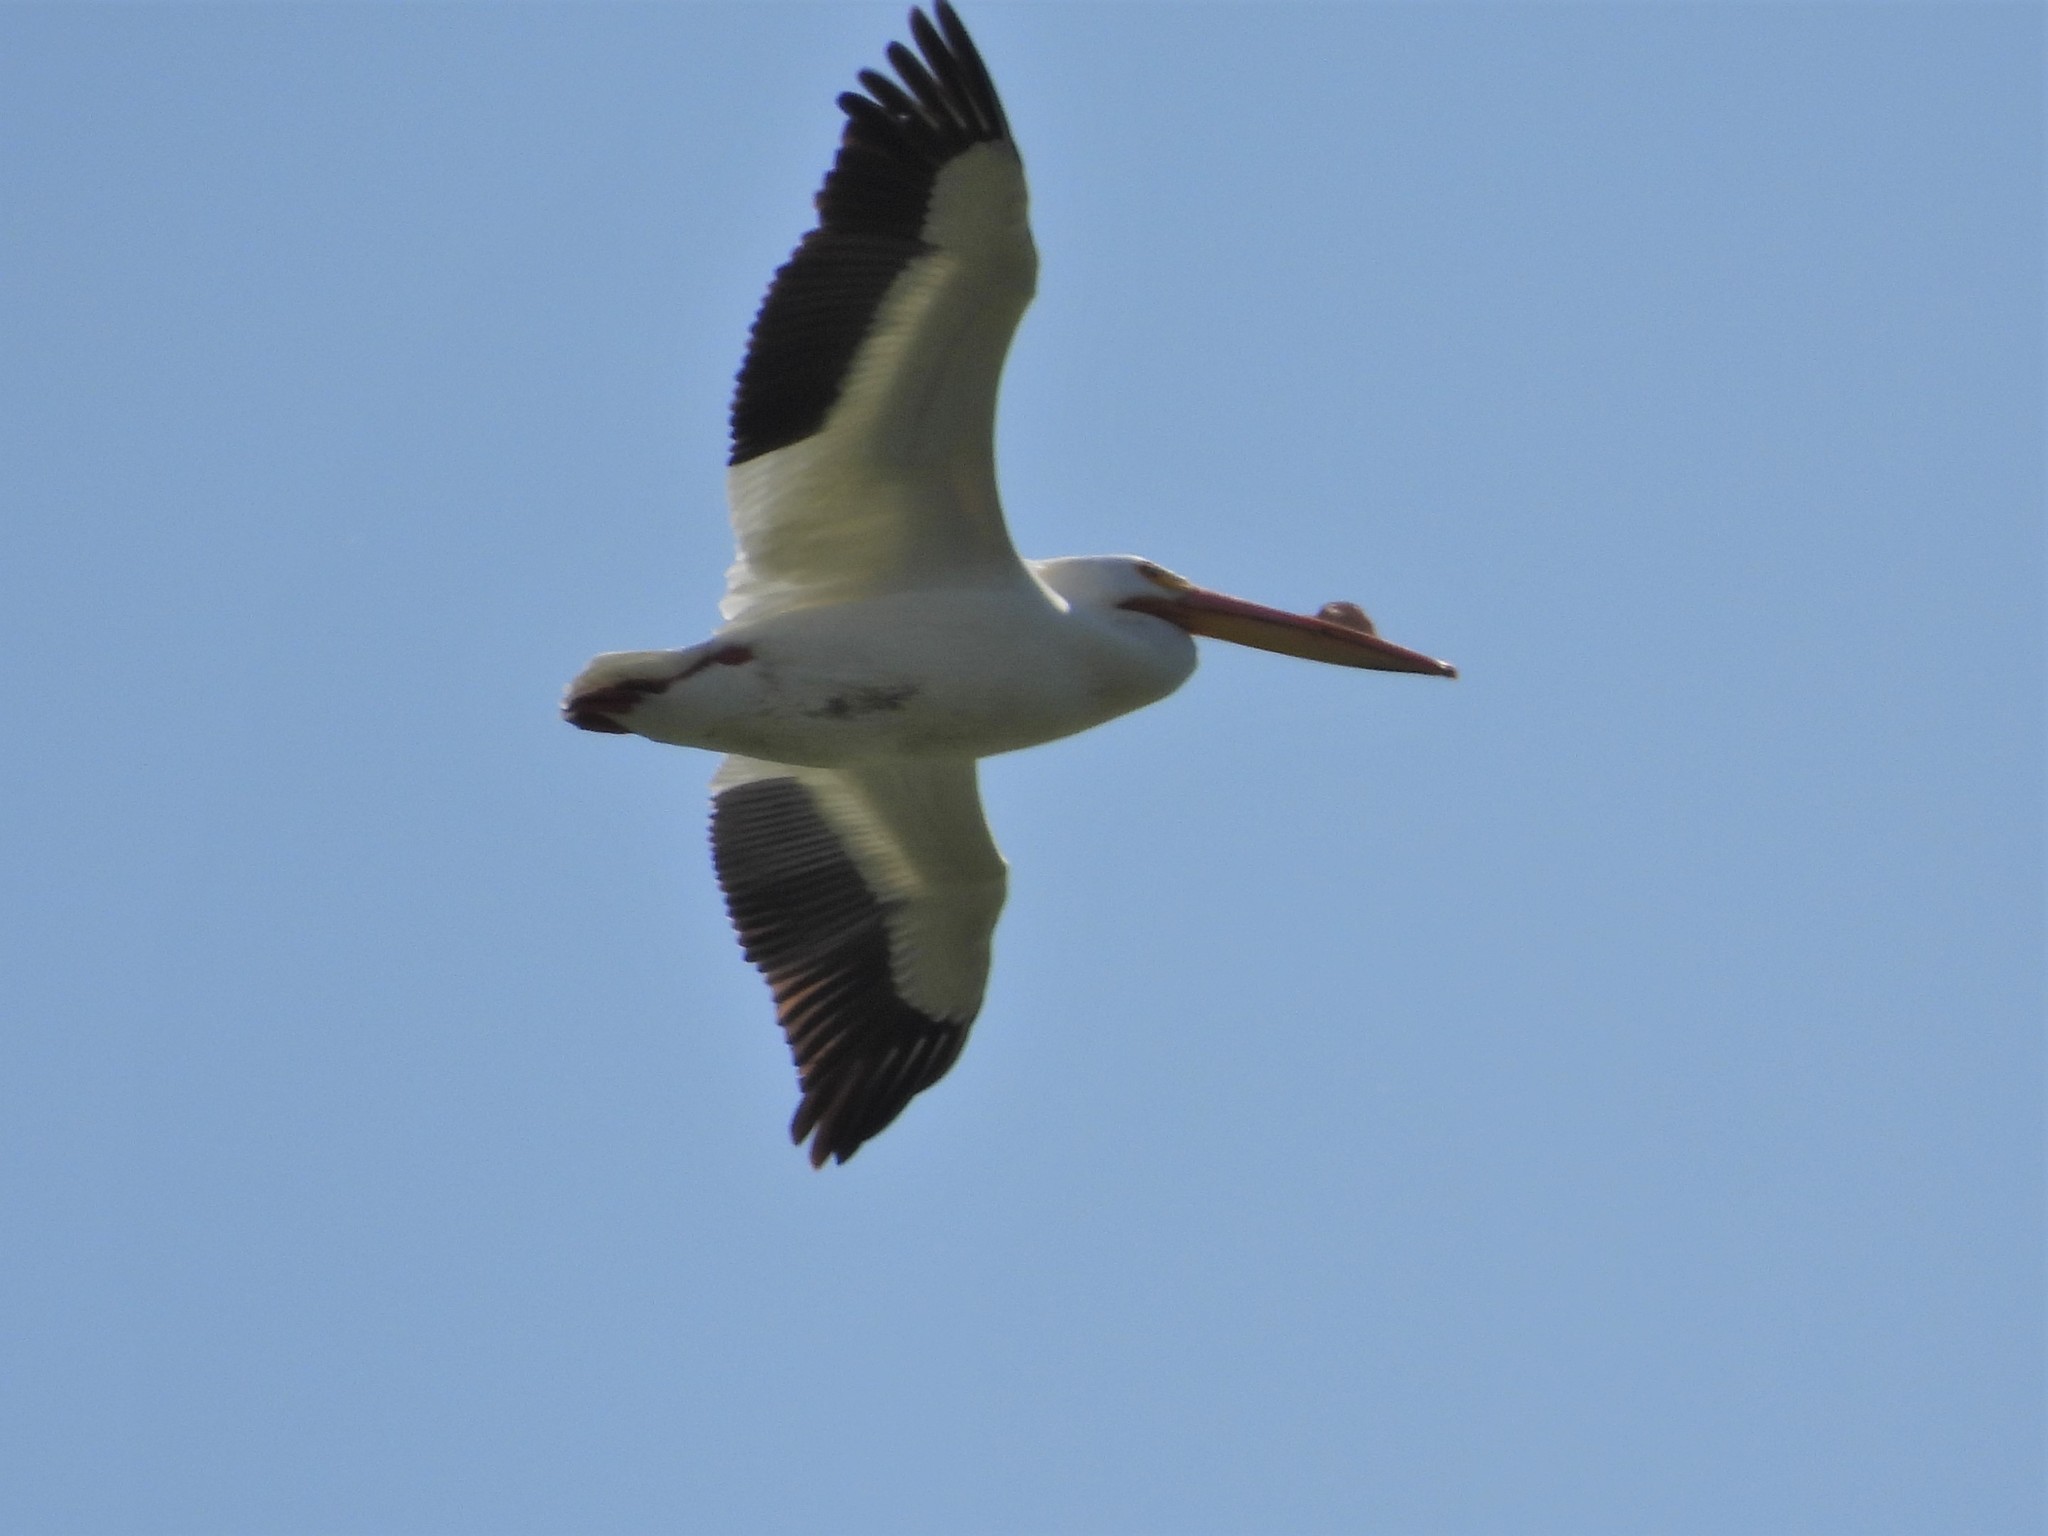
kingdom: Animalia
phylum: Chordata
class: Aves
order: Pelecaniformes
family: Pelecanidae
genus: Pelecanus
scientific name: Pelecanus erythrorhynchos
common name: American white pelican
